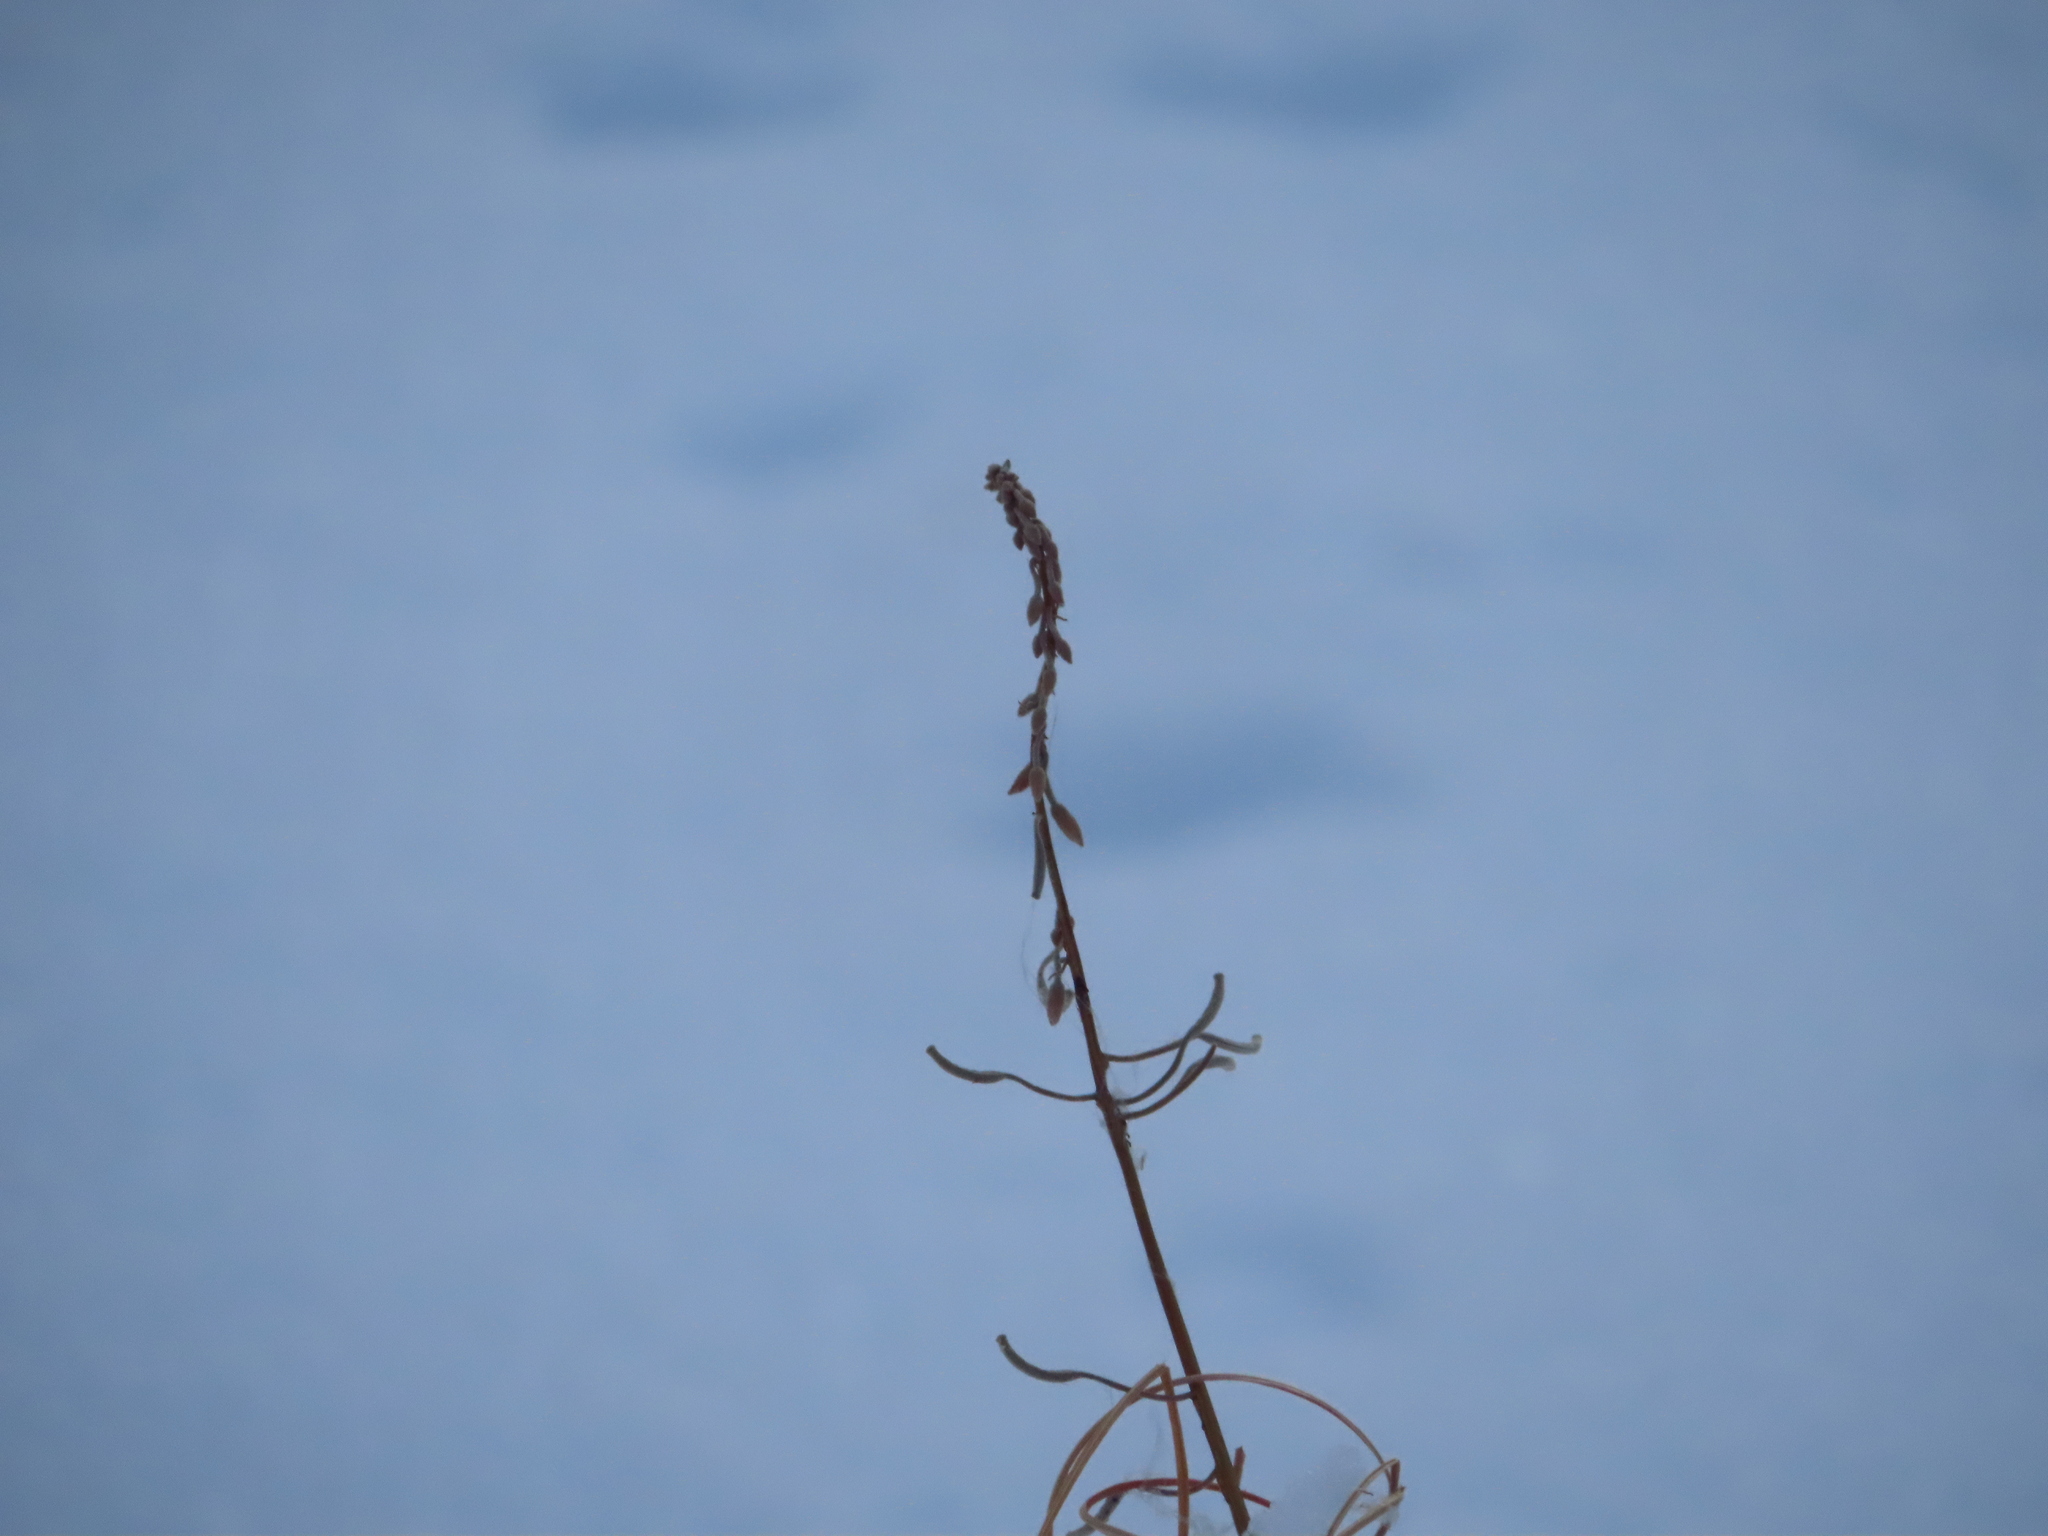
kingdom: Plantae
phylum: Tracheophyta
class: Magnoliopsida
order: Myrtales
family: Onagraceae
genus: Chamaenerion
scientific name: Chamaenerion angustifolium
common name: Fireweed
